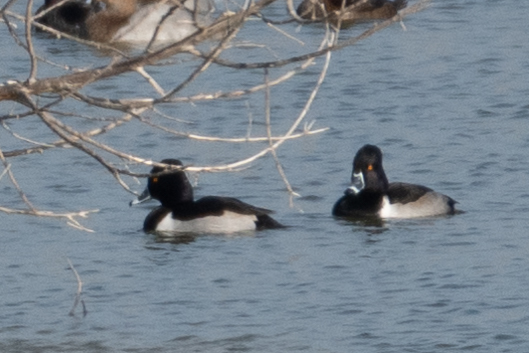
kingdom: Animalia
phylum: Chordata
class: Aves
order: Anseriformes
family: Anatidae
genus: Aythya
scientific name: Aythya collaris
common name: Ring-necked duck
